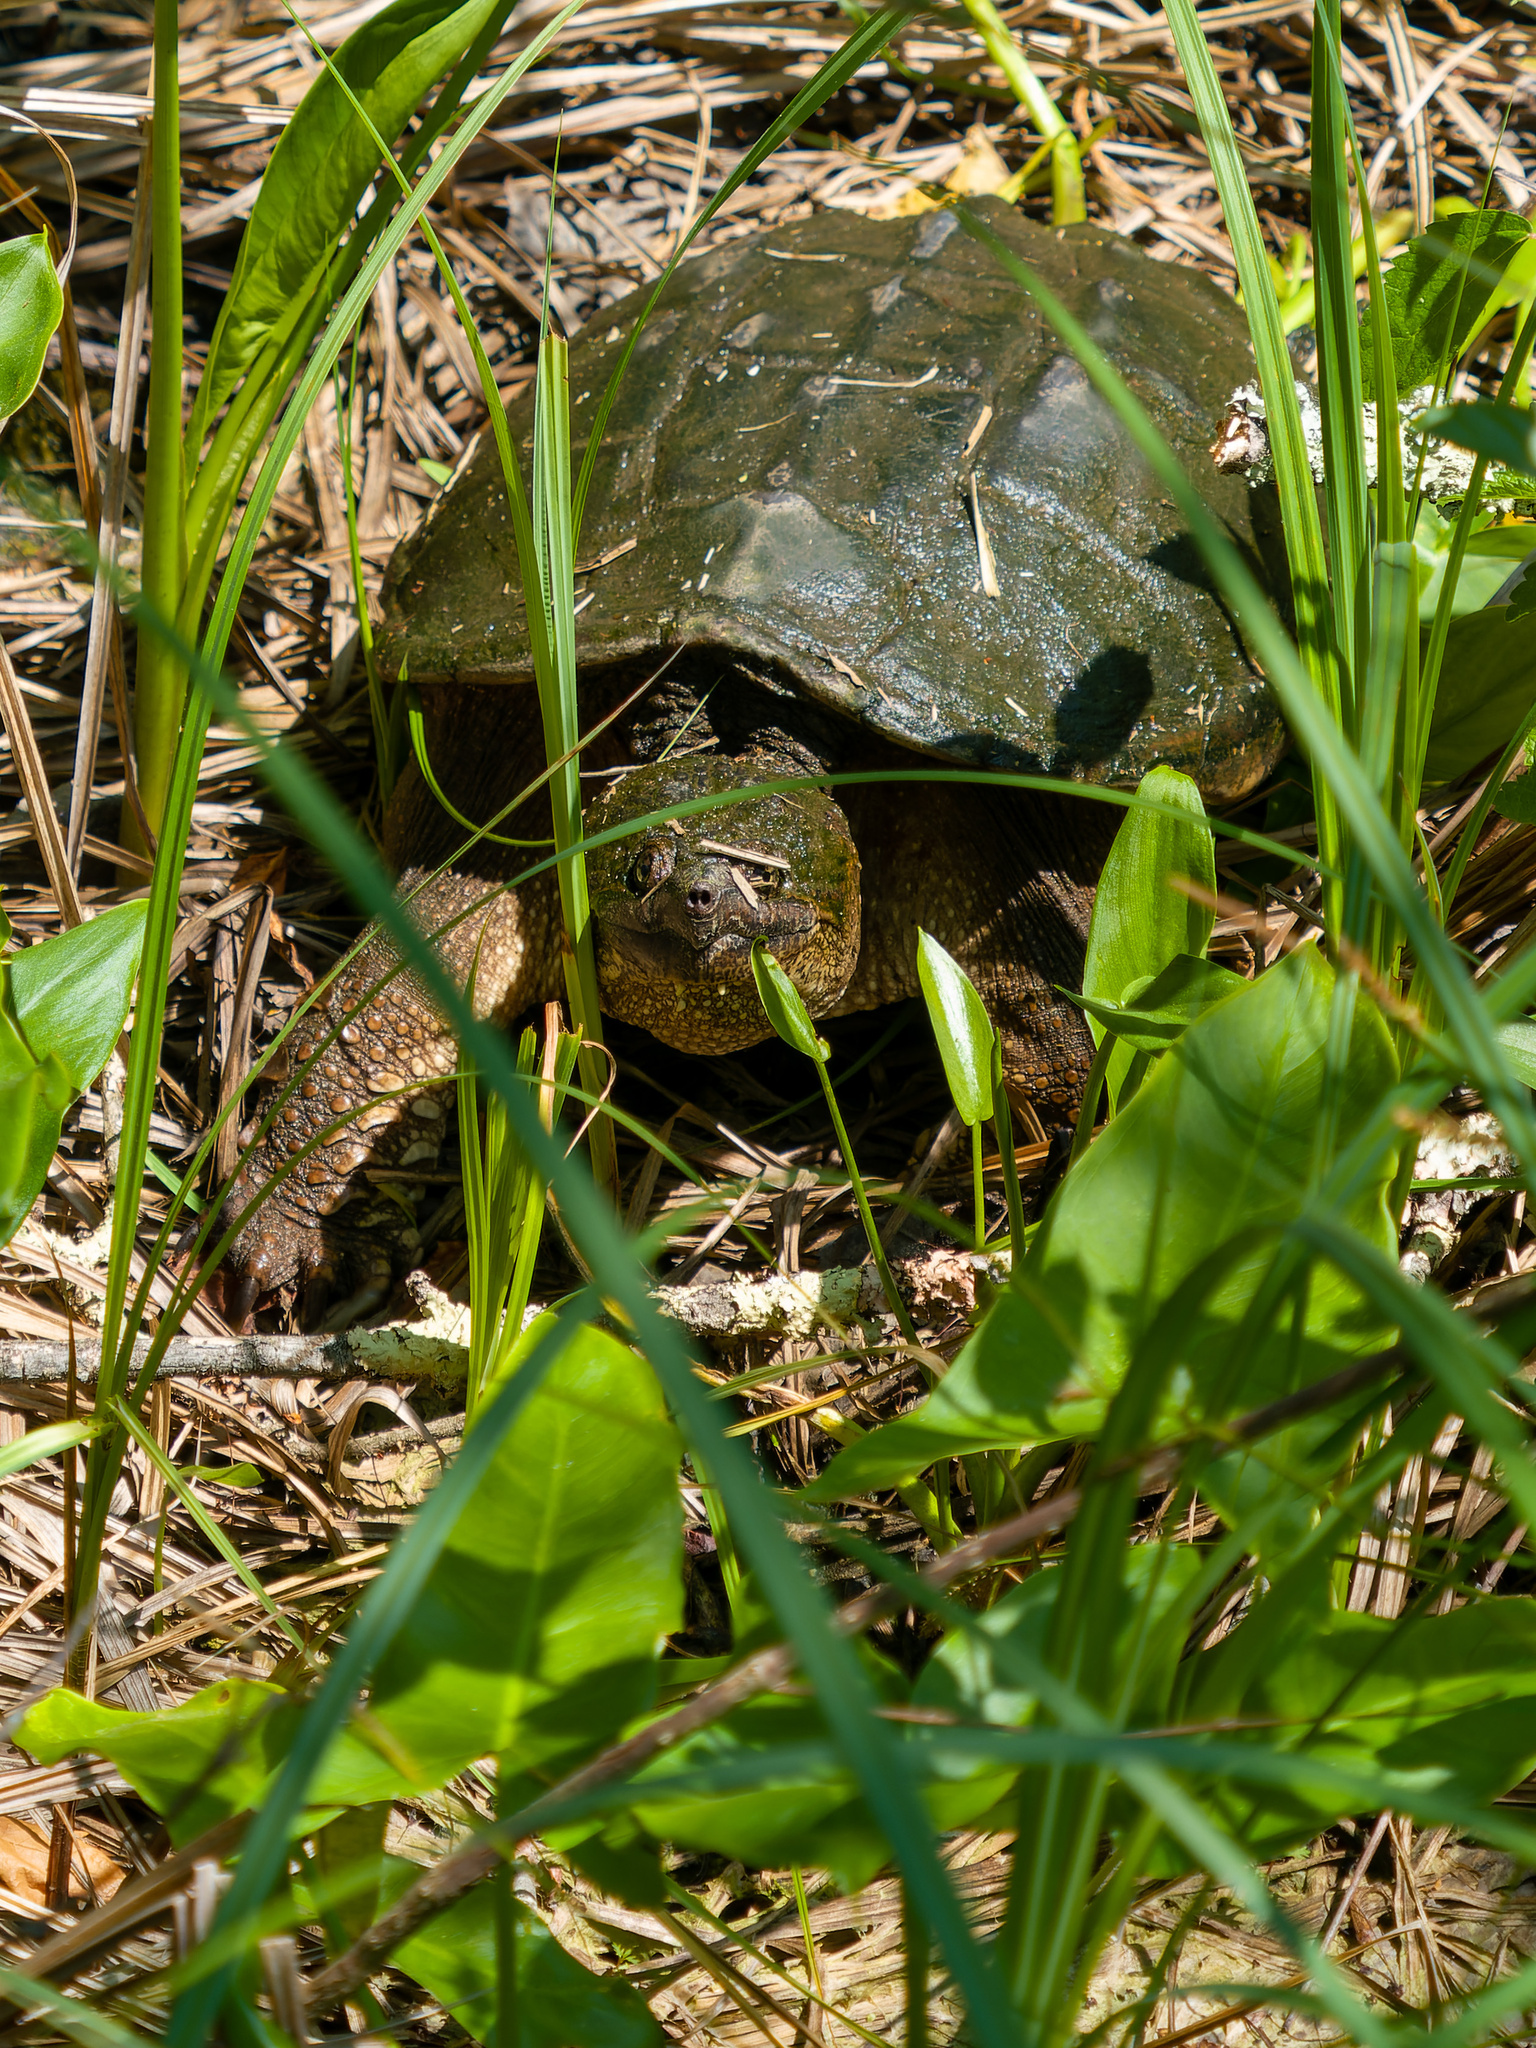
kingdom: Animalia
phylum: Chordata
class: Testudines
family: Chelydridae
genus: Chelydra
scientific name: Chelydra serpentina
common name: Common snapping turtle
